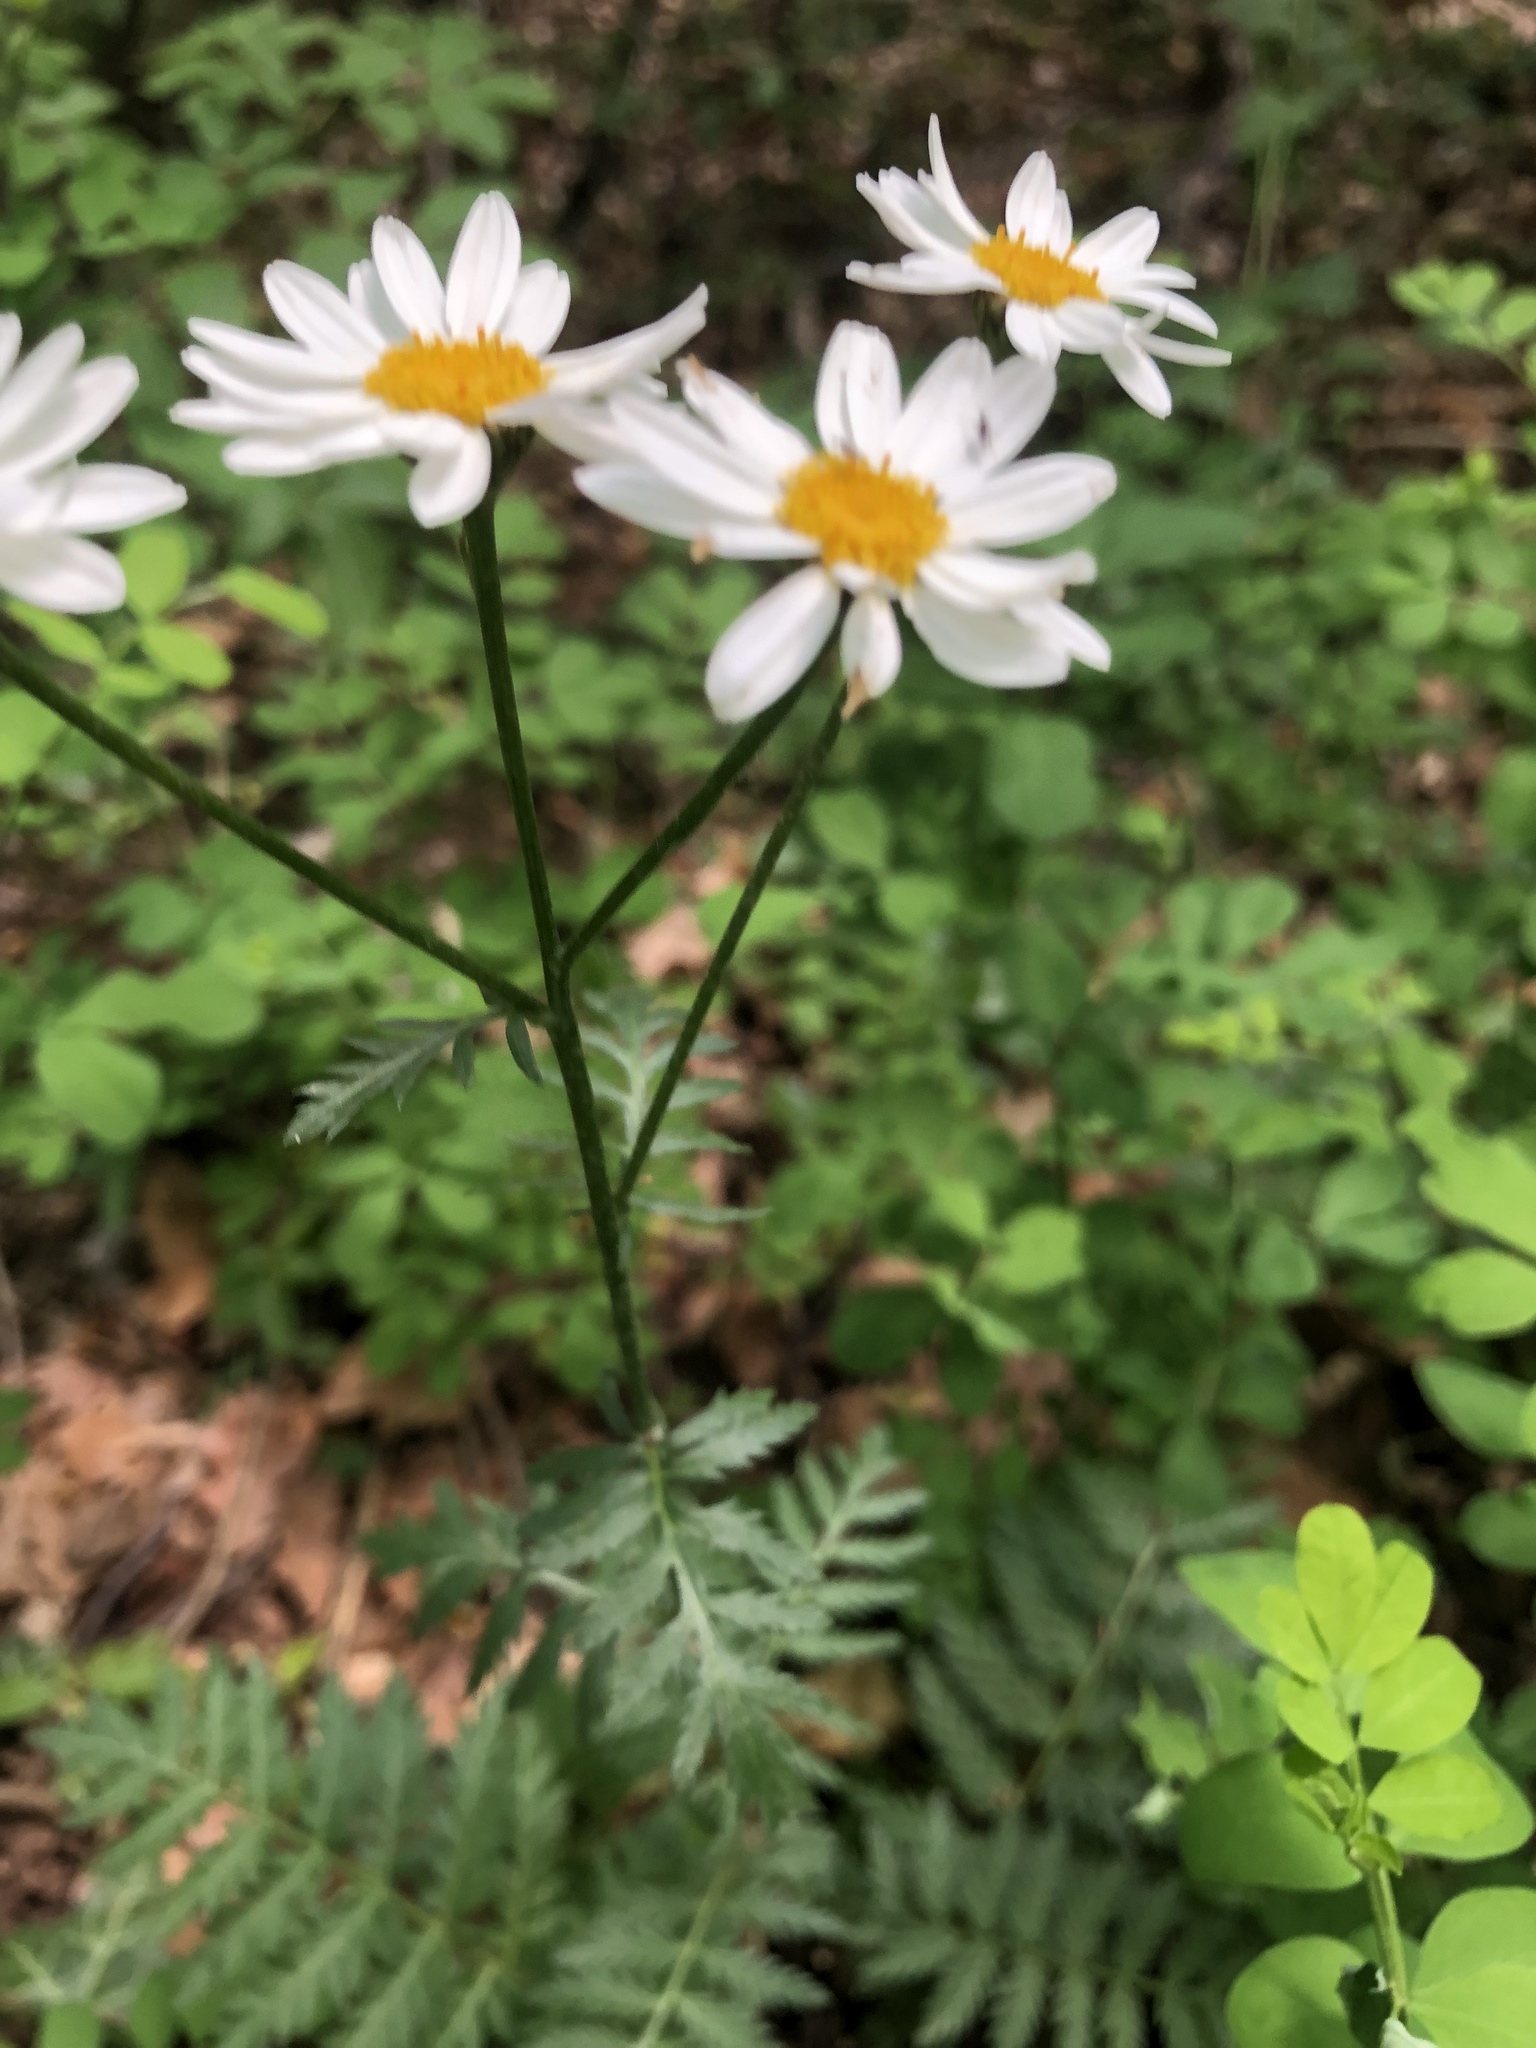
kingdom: Plantae
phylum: Tracheophyta
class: Magnoliopsida
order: Asterales
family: Asteraceae
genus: Tanacetum
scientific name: Tanacetum corymbosum
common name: Scentless feverfew
